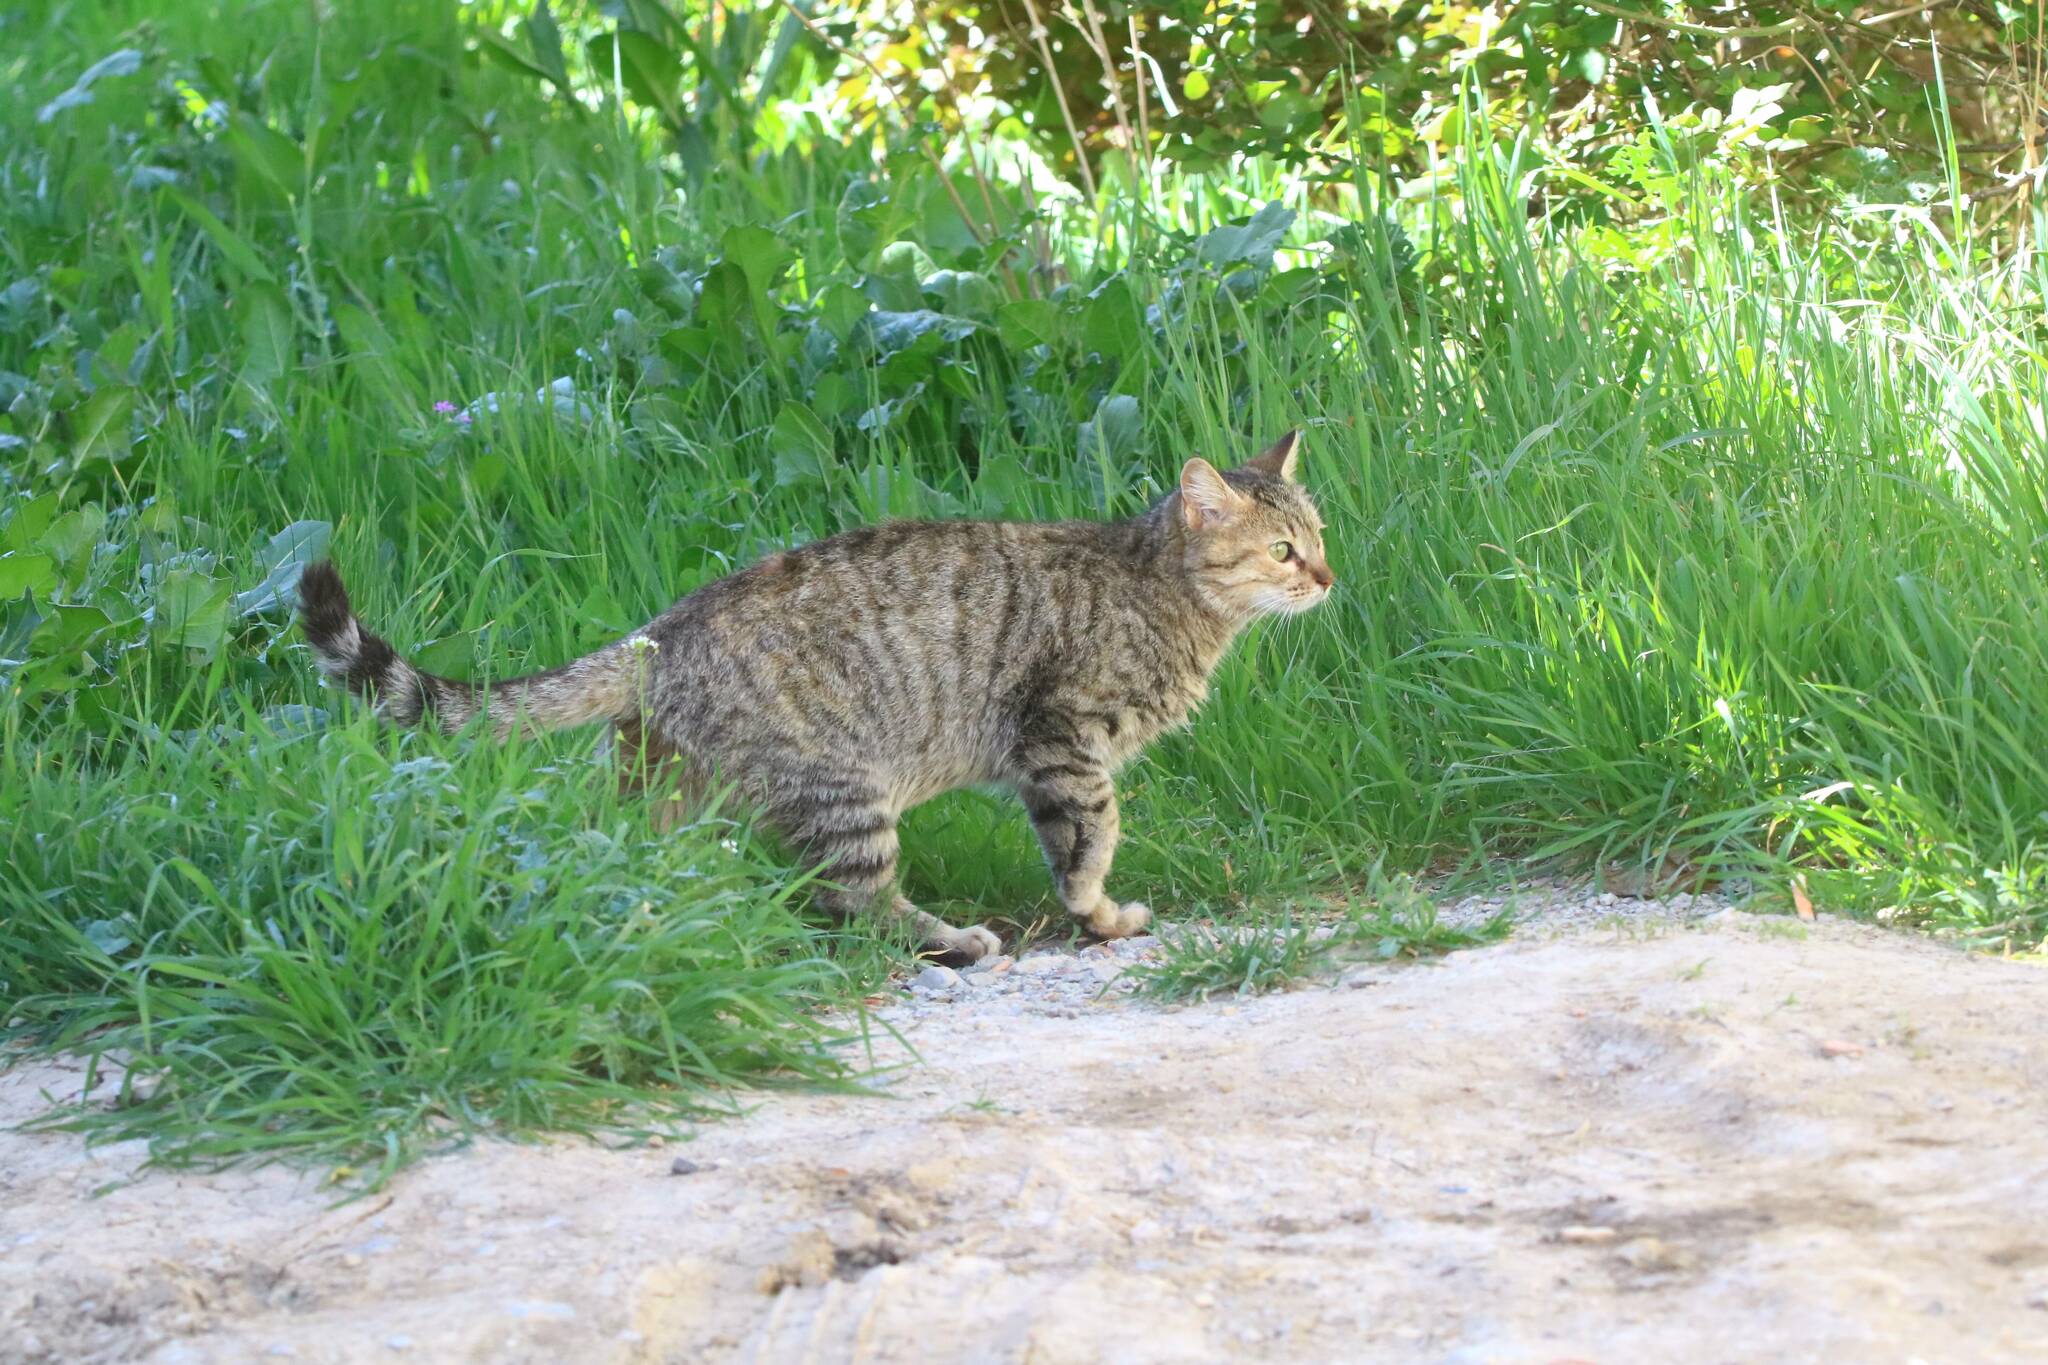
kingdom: Animalia
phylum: Chordata
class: Mammalia
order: Carnivora
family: Felidae
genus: Felis
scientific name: Felis catus
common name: Domestic cat
